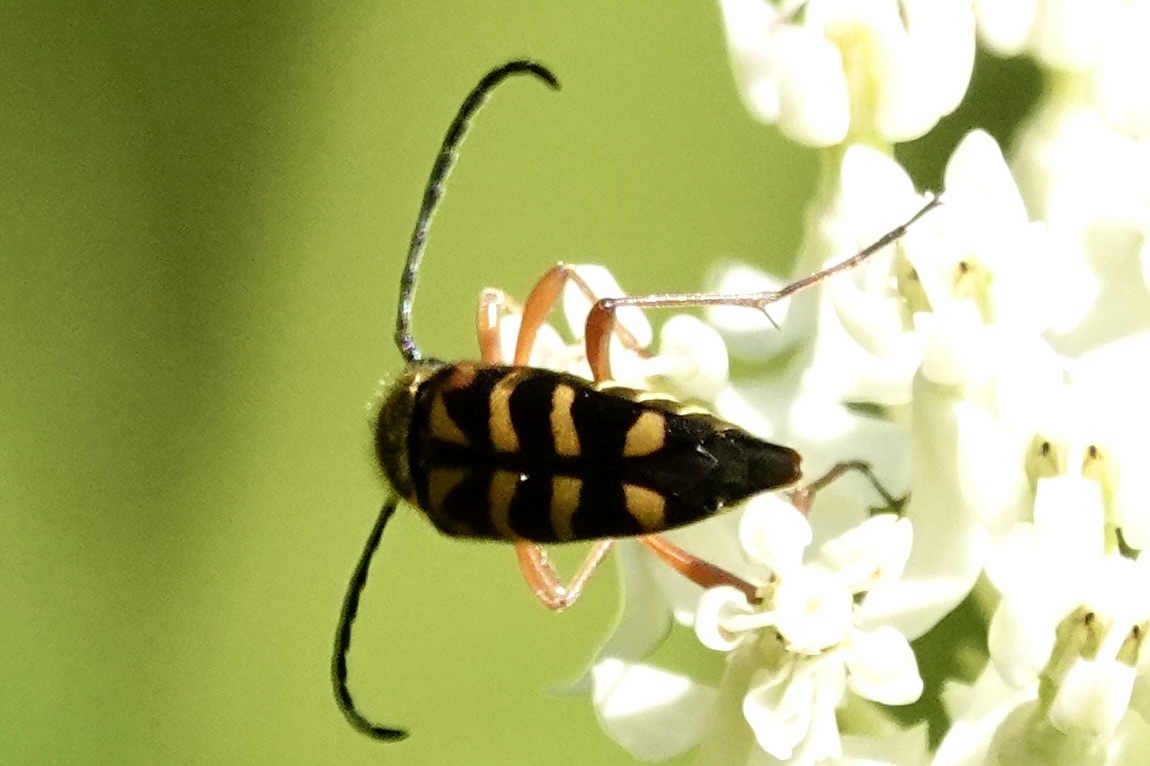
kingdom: Animalia
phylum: Arthropoda
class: Insecta
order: Coleoptera
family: Cerambycidae
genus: Typocerus
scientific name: Typocerus zebra
